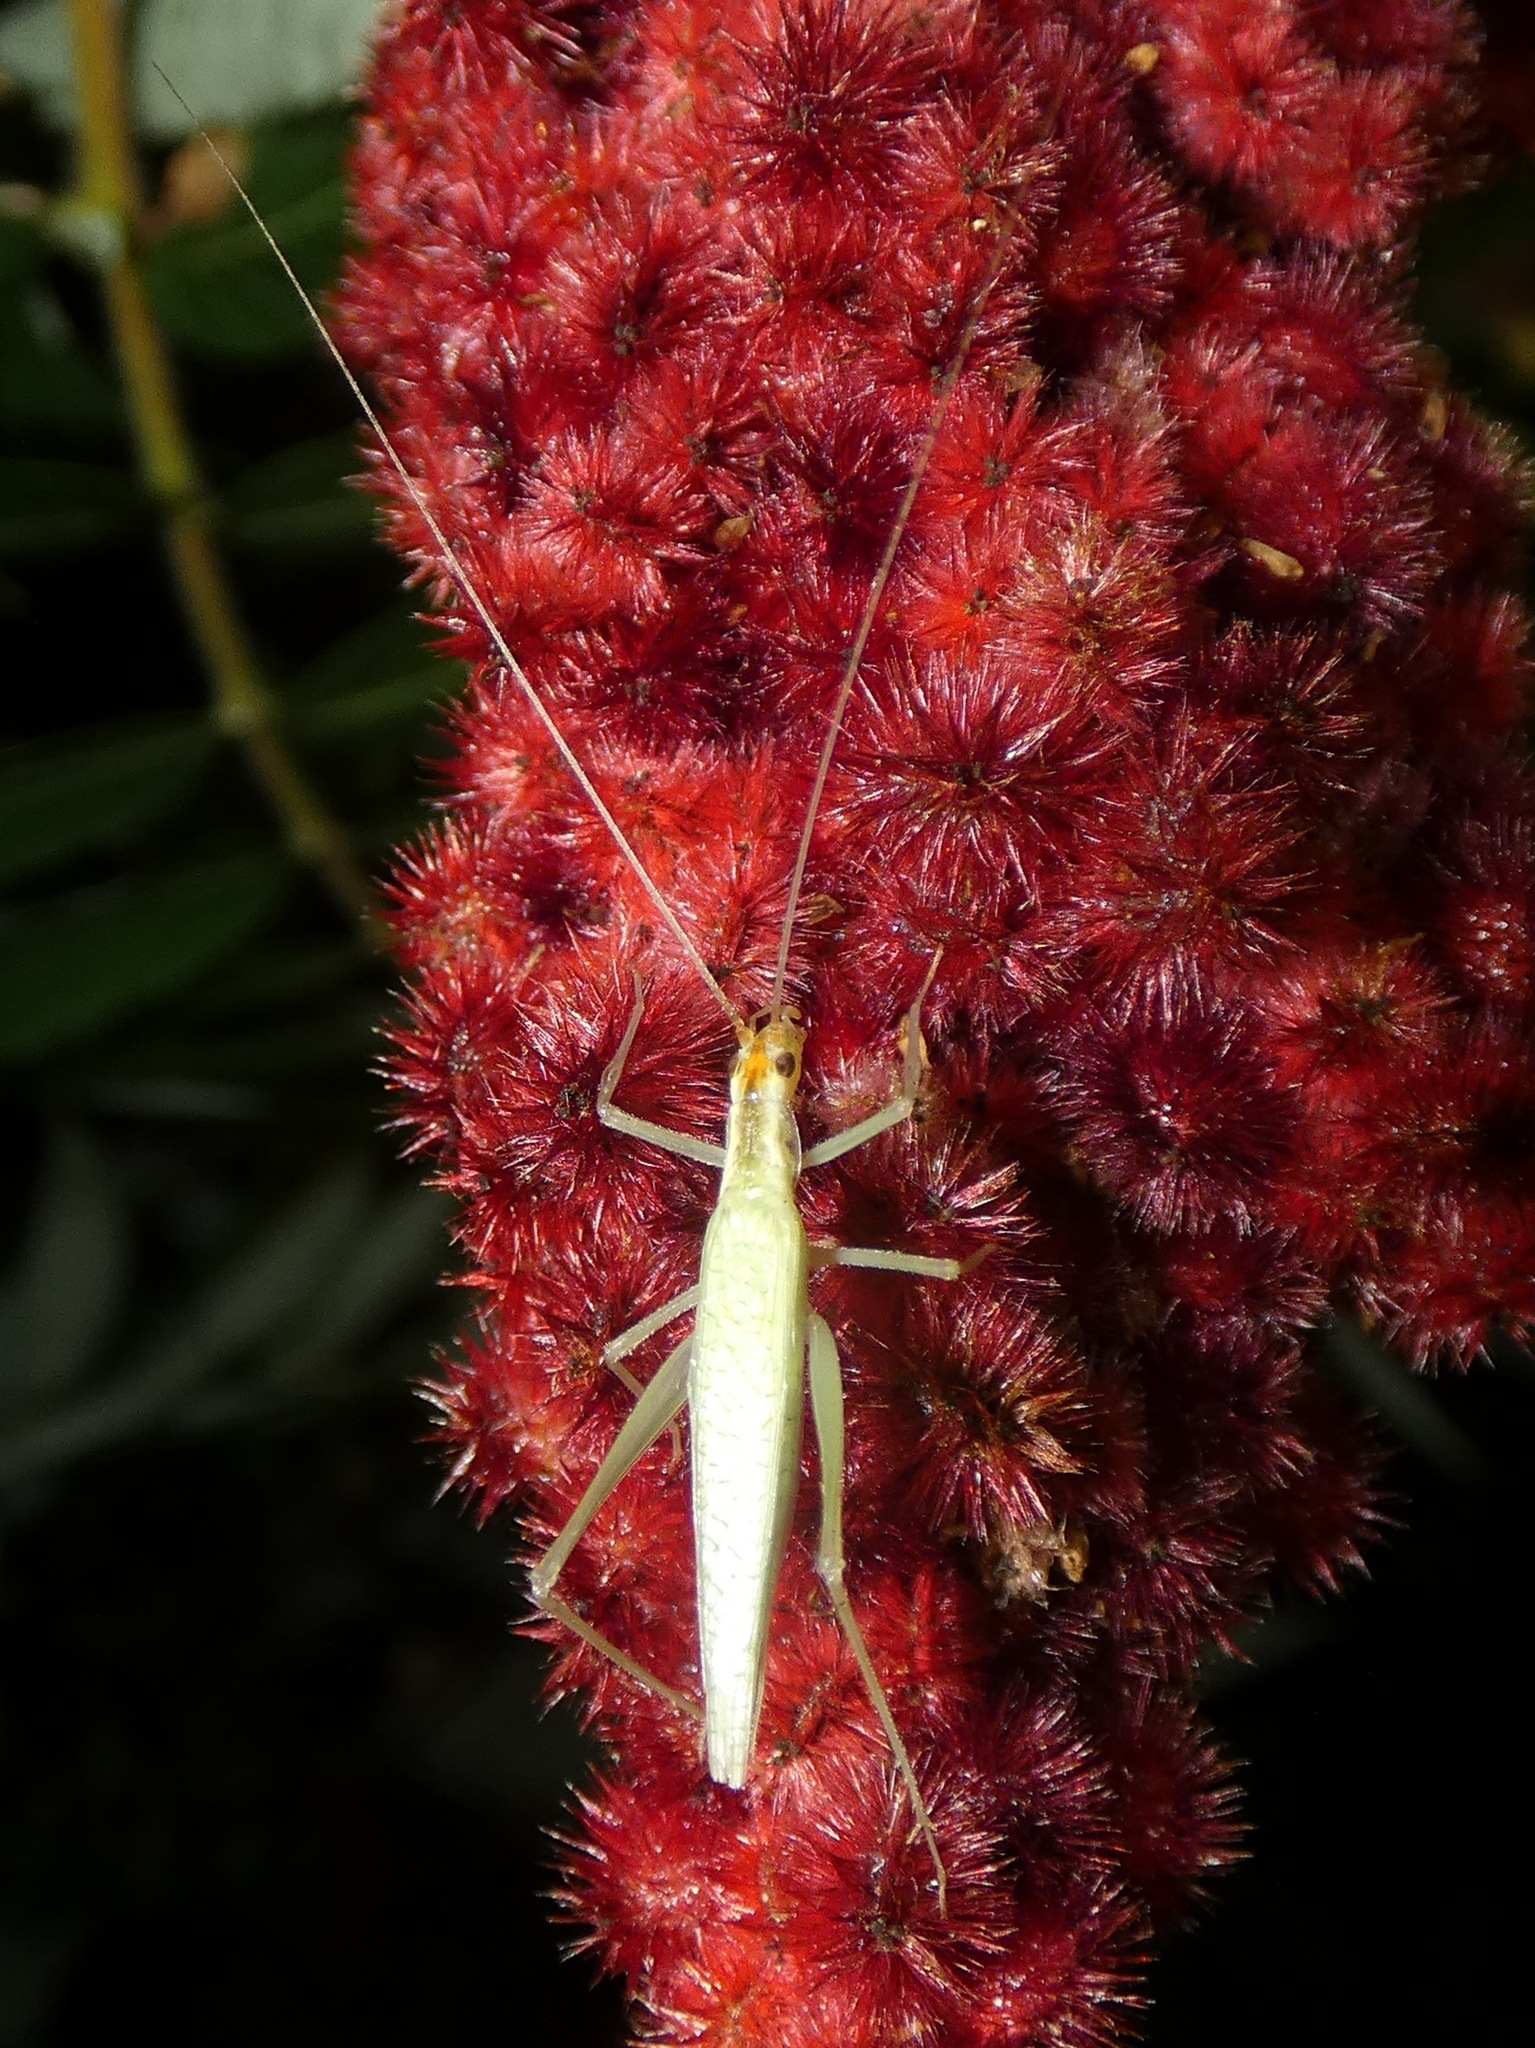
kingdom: Animalia
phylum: Arthropoda
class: Insecta
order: Orthoptera
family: Gryllidae
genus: Oecanthus
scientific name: Oecanthus niveus
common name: Narrow-winged tree cricket
